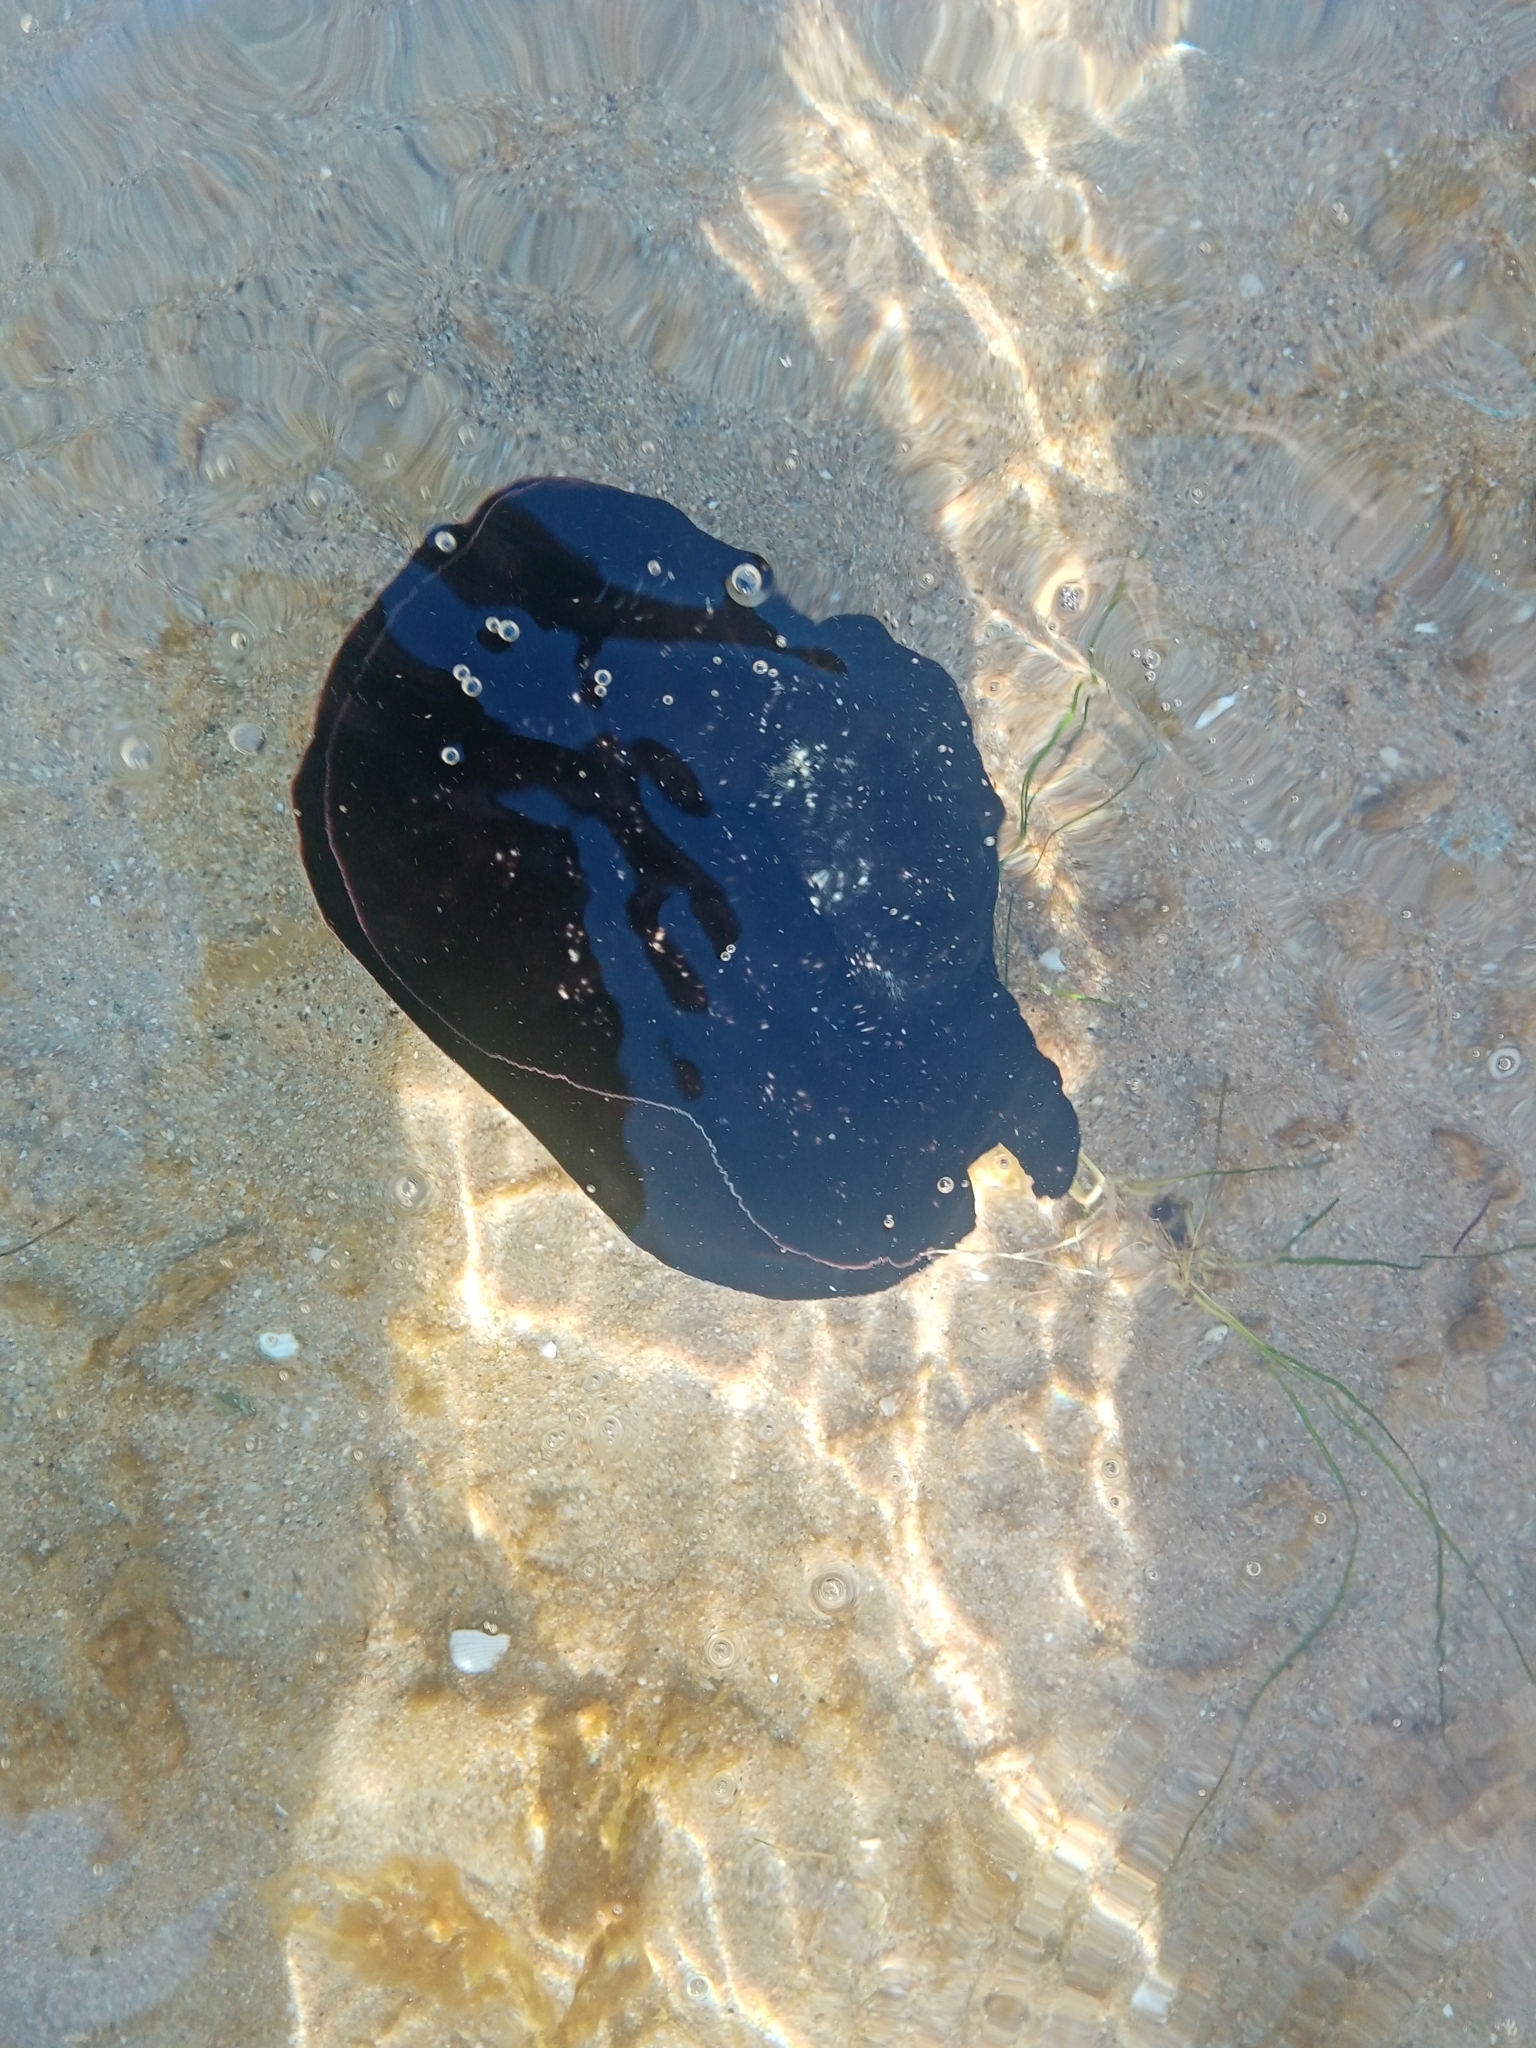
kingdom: Animalia
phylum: Mollusca
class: Gastropoda
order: Aplysiida
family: Aplysiidae
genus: Aplysia
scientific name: Aplysia fasciata
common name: Banded sea hare
